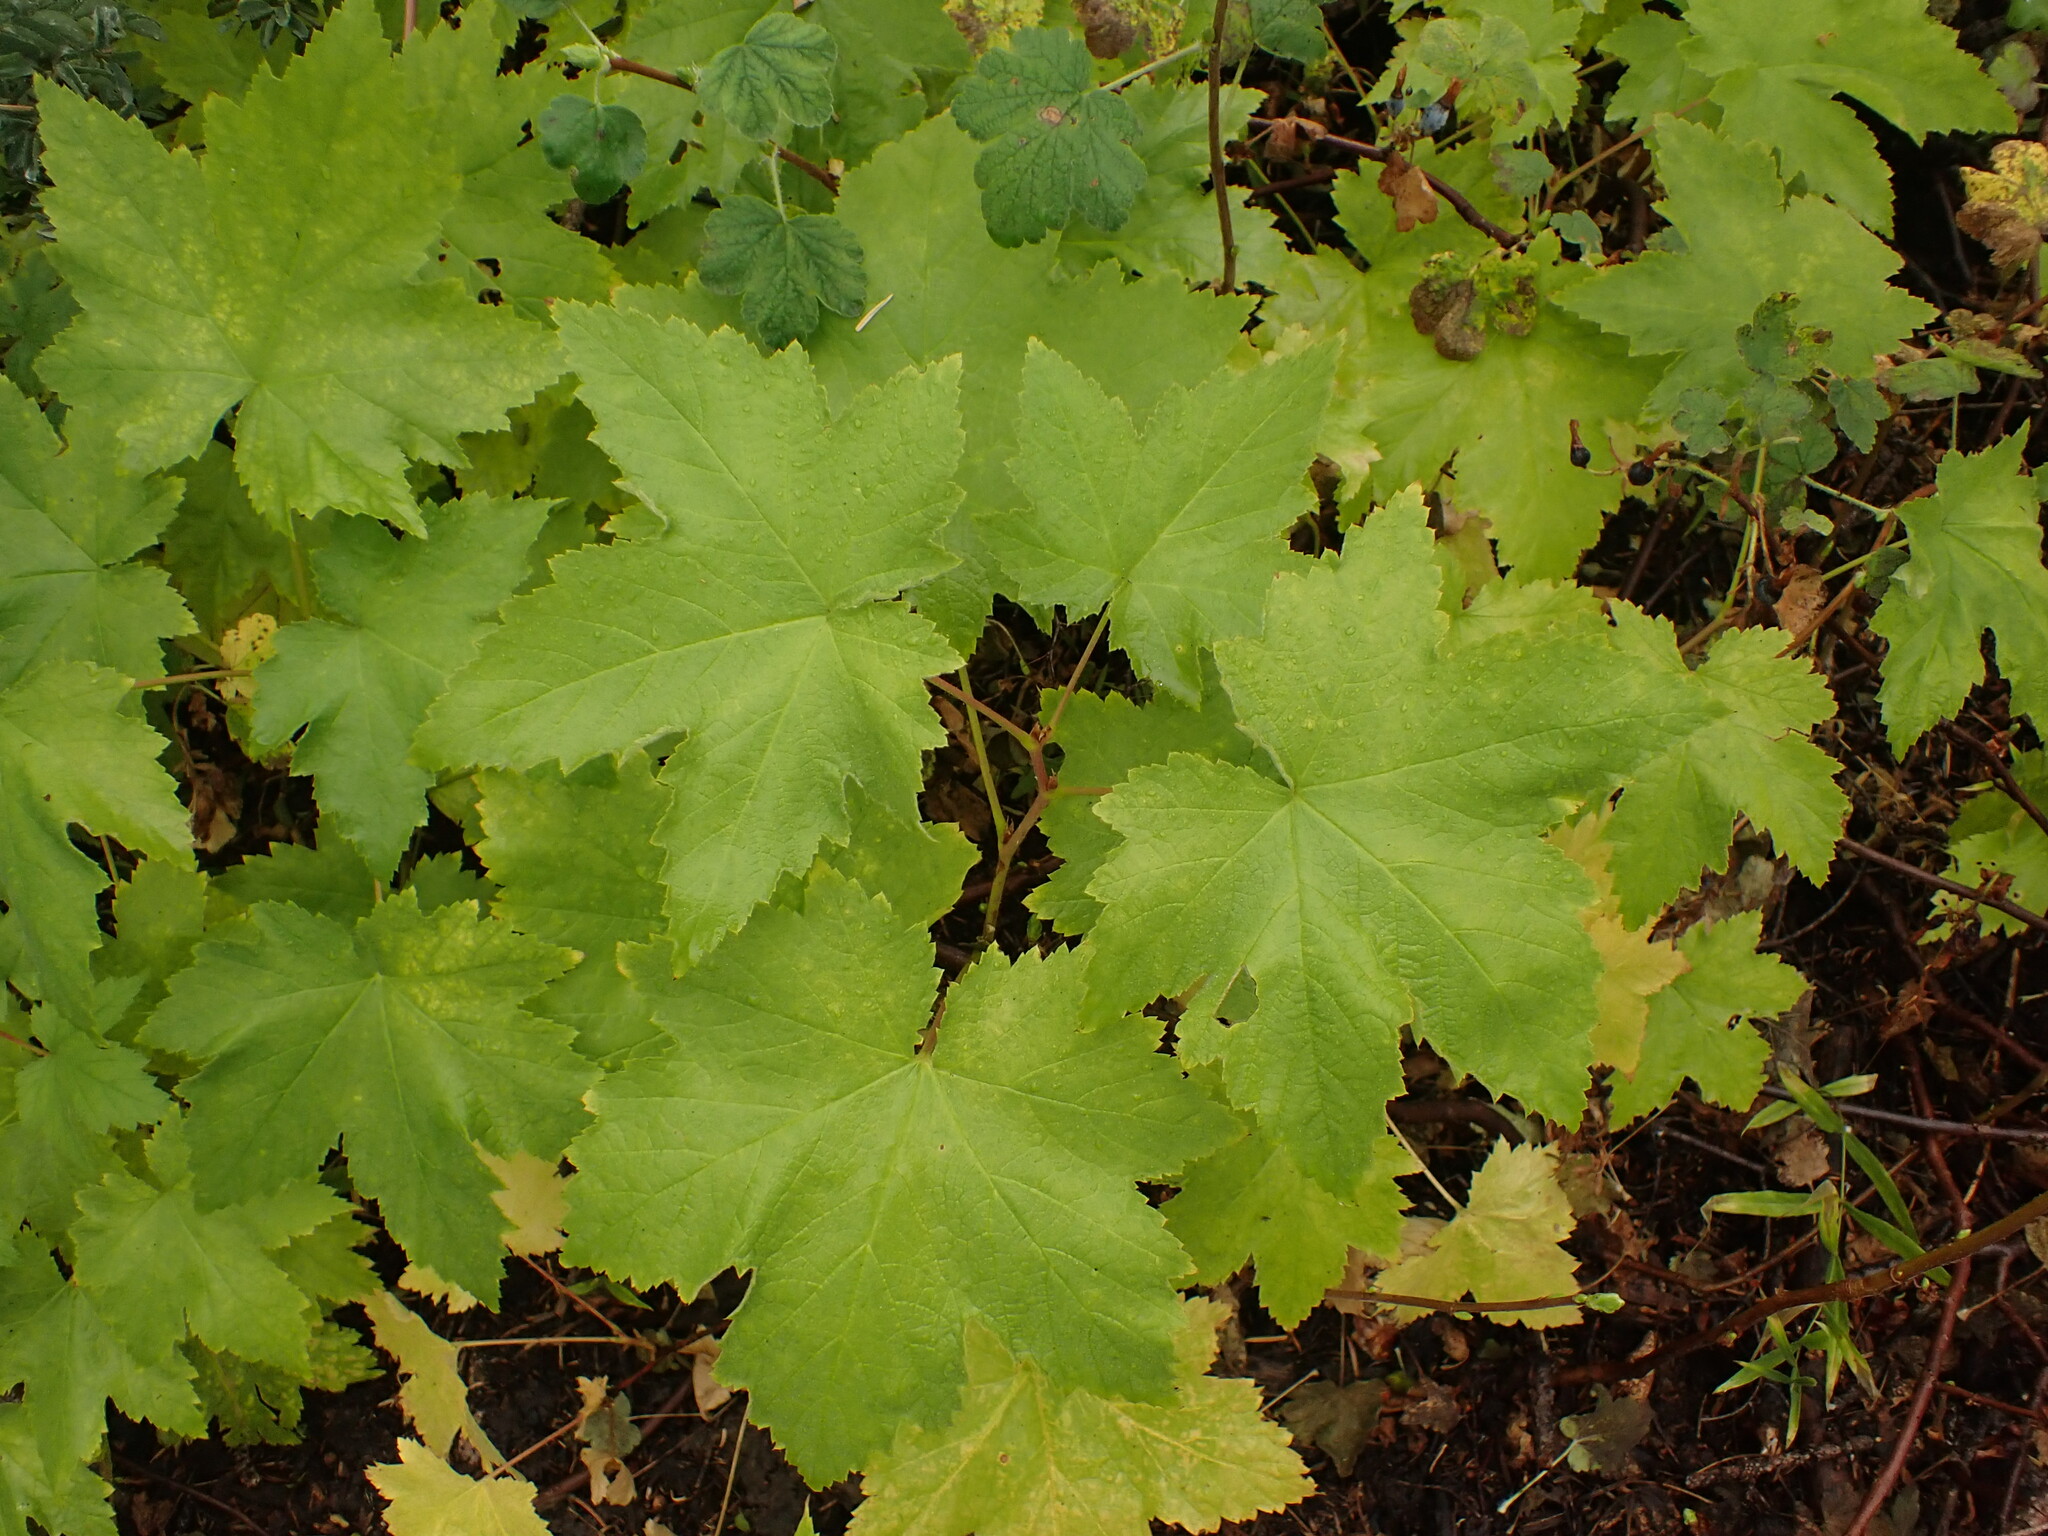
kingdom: Plantae
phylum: Tracheophyta
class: Magnoliopsida
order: Rosales
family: Rosaceae
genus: Rubus
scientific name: Rubus parviflorus
